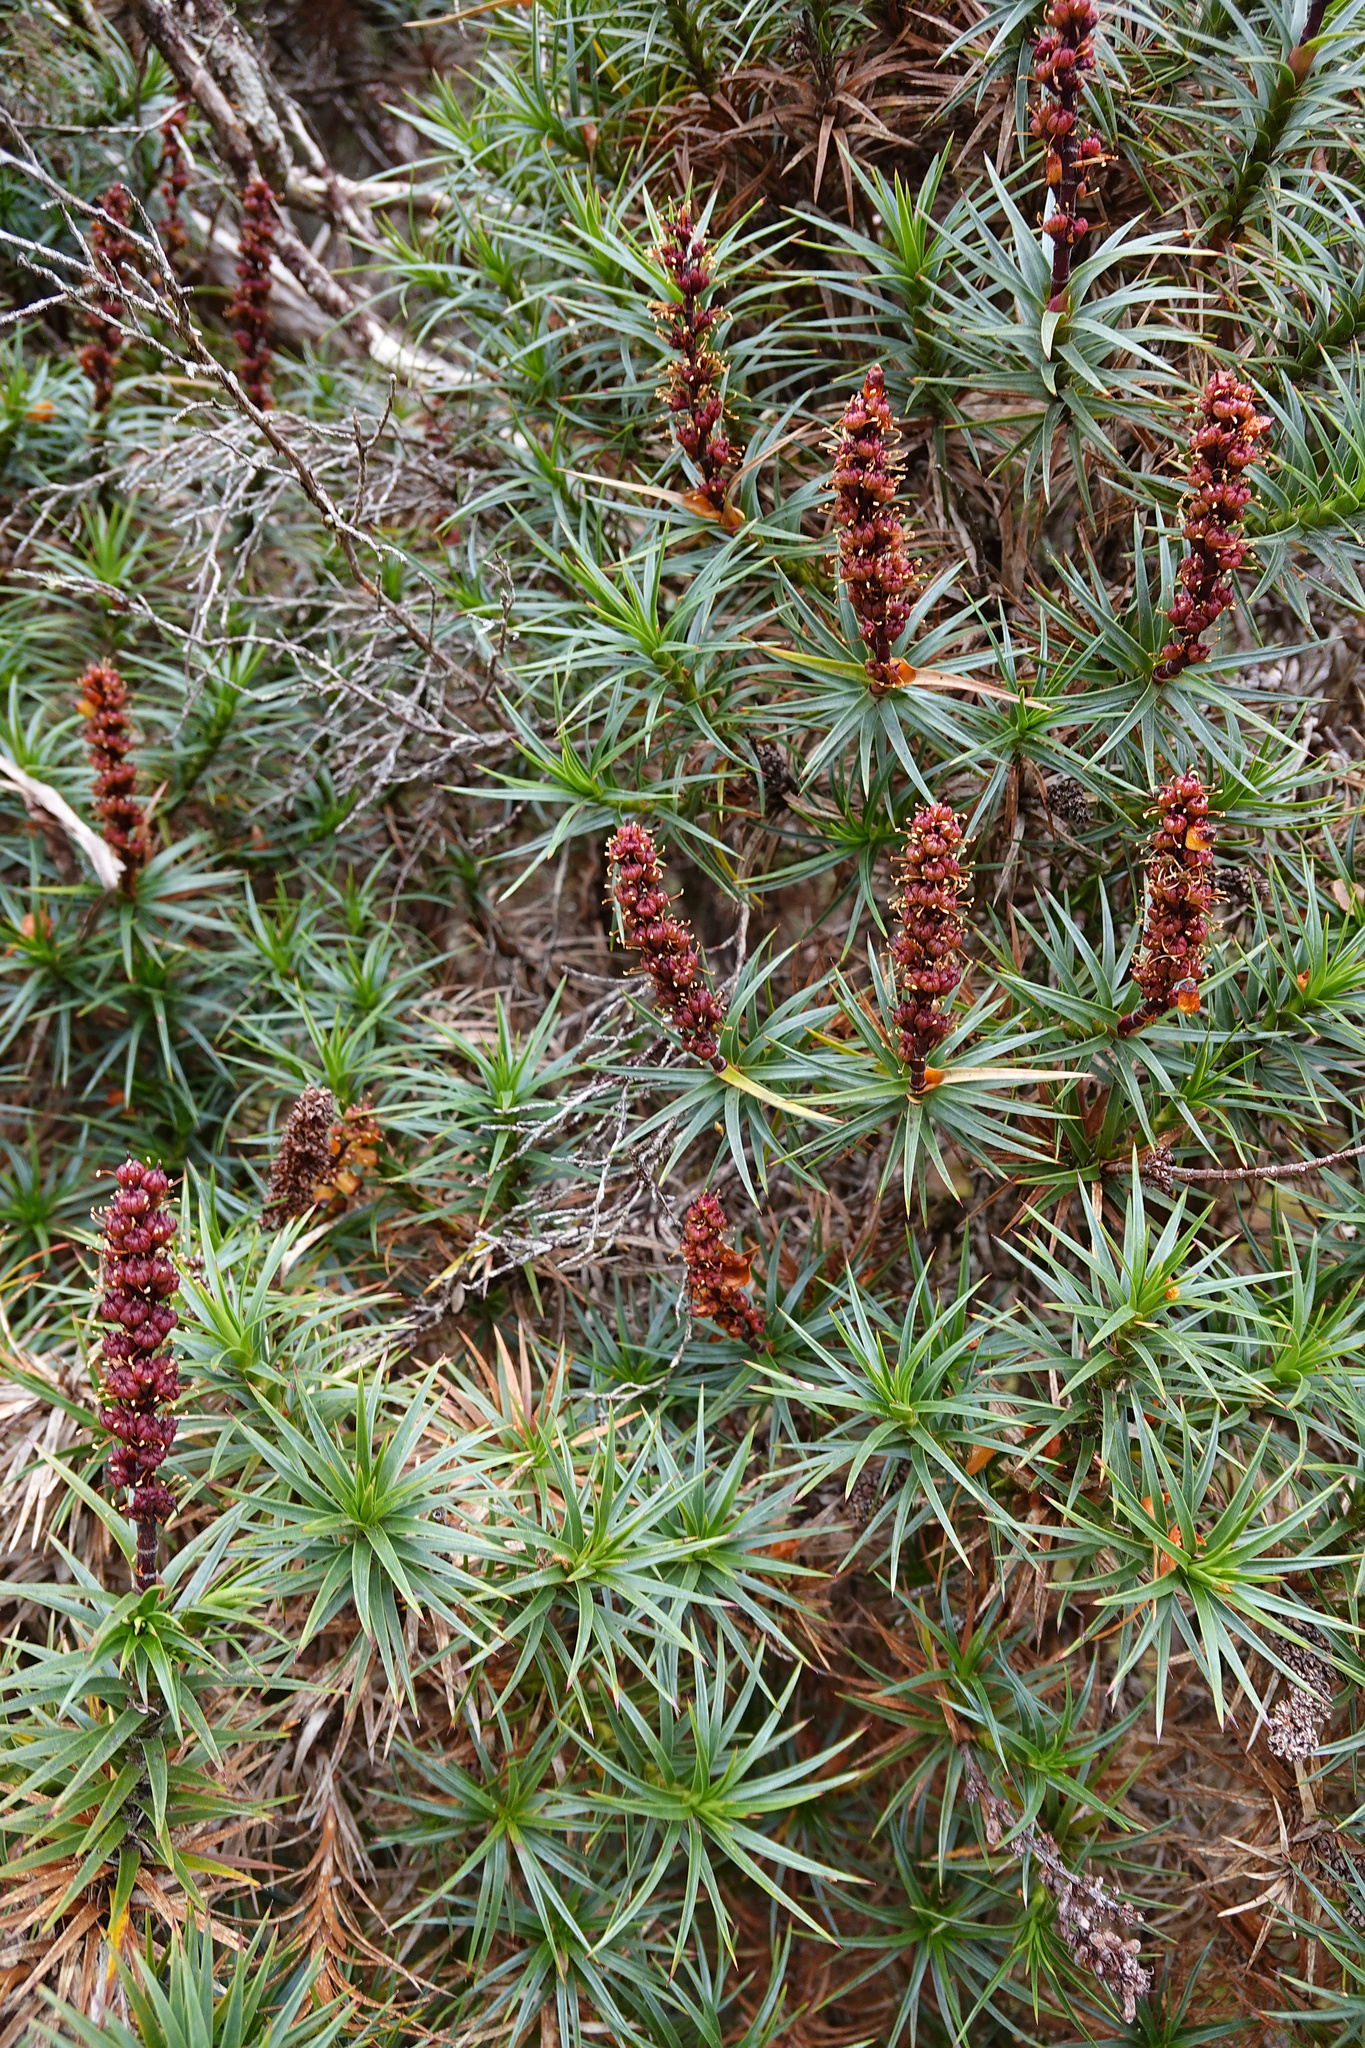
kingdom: Plantae
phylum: Tracheophyta
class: Magnoliopsida
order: Ericales
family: Ericaceae
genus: Dracophyllum
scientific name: Dracophyllum persistentifolium
